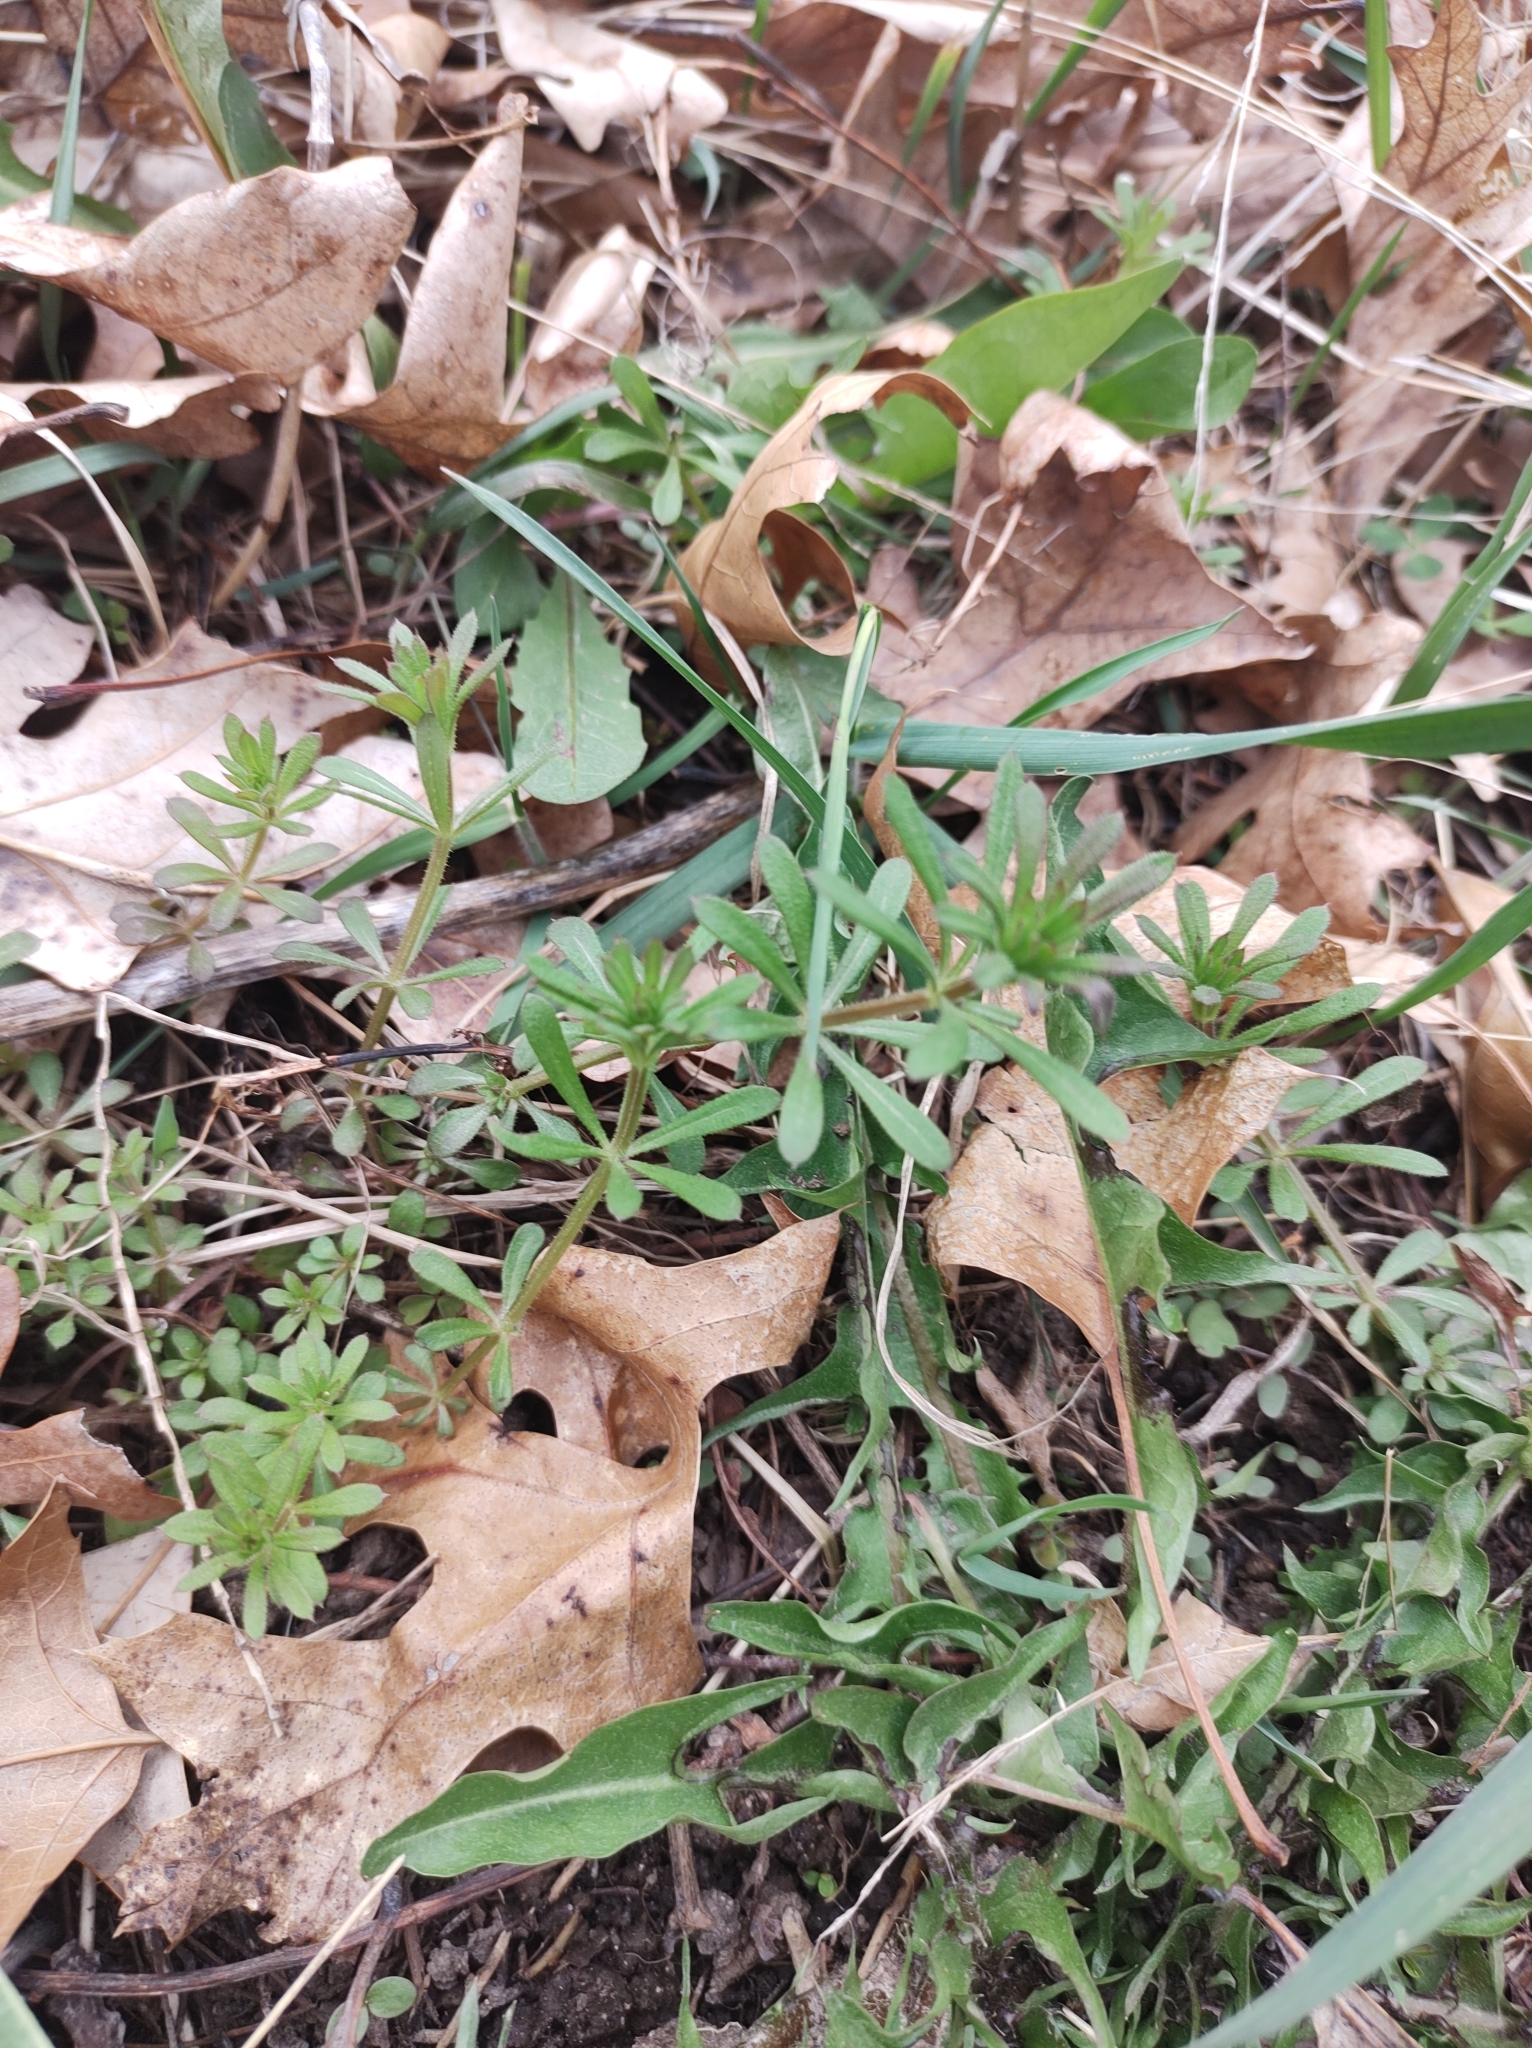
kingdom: Plantae
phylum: Tracheophyta
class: Magnoliopsida
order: Gentianales
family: Rubiaceae
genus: Galium
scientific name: Galium aparine
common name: Cleavers
